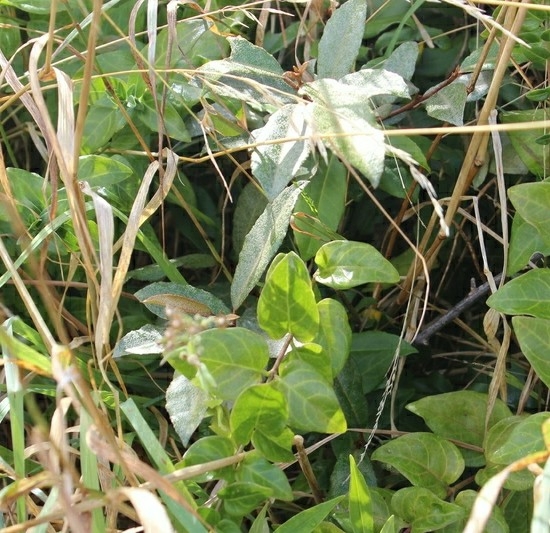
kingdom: Plantae
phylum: Tracheophyta
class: Magnoliopsida
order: Rosales
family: Elaeagnaceae
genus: Elaeagnus
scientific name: Elaeagnus reflexa
